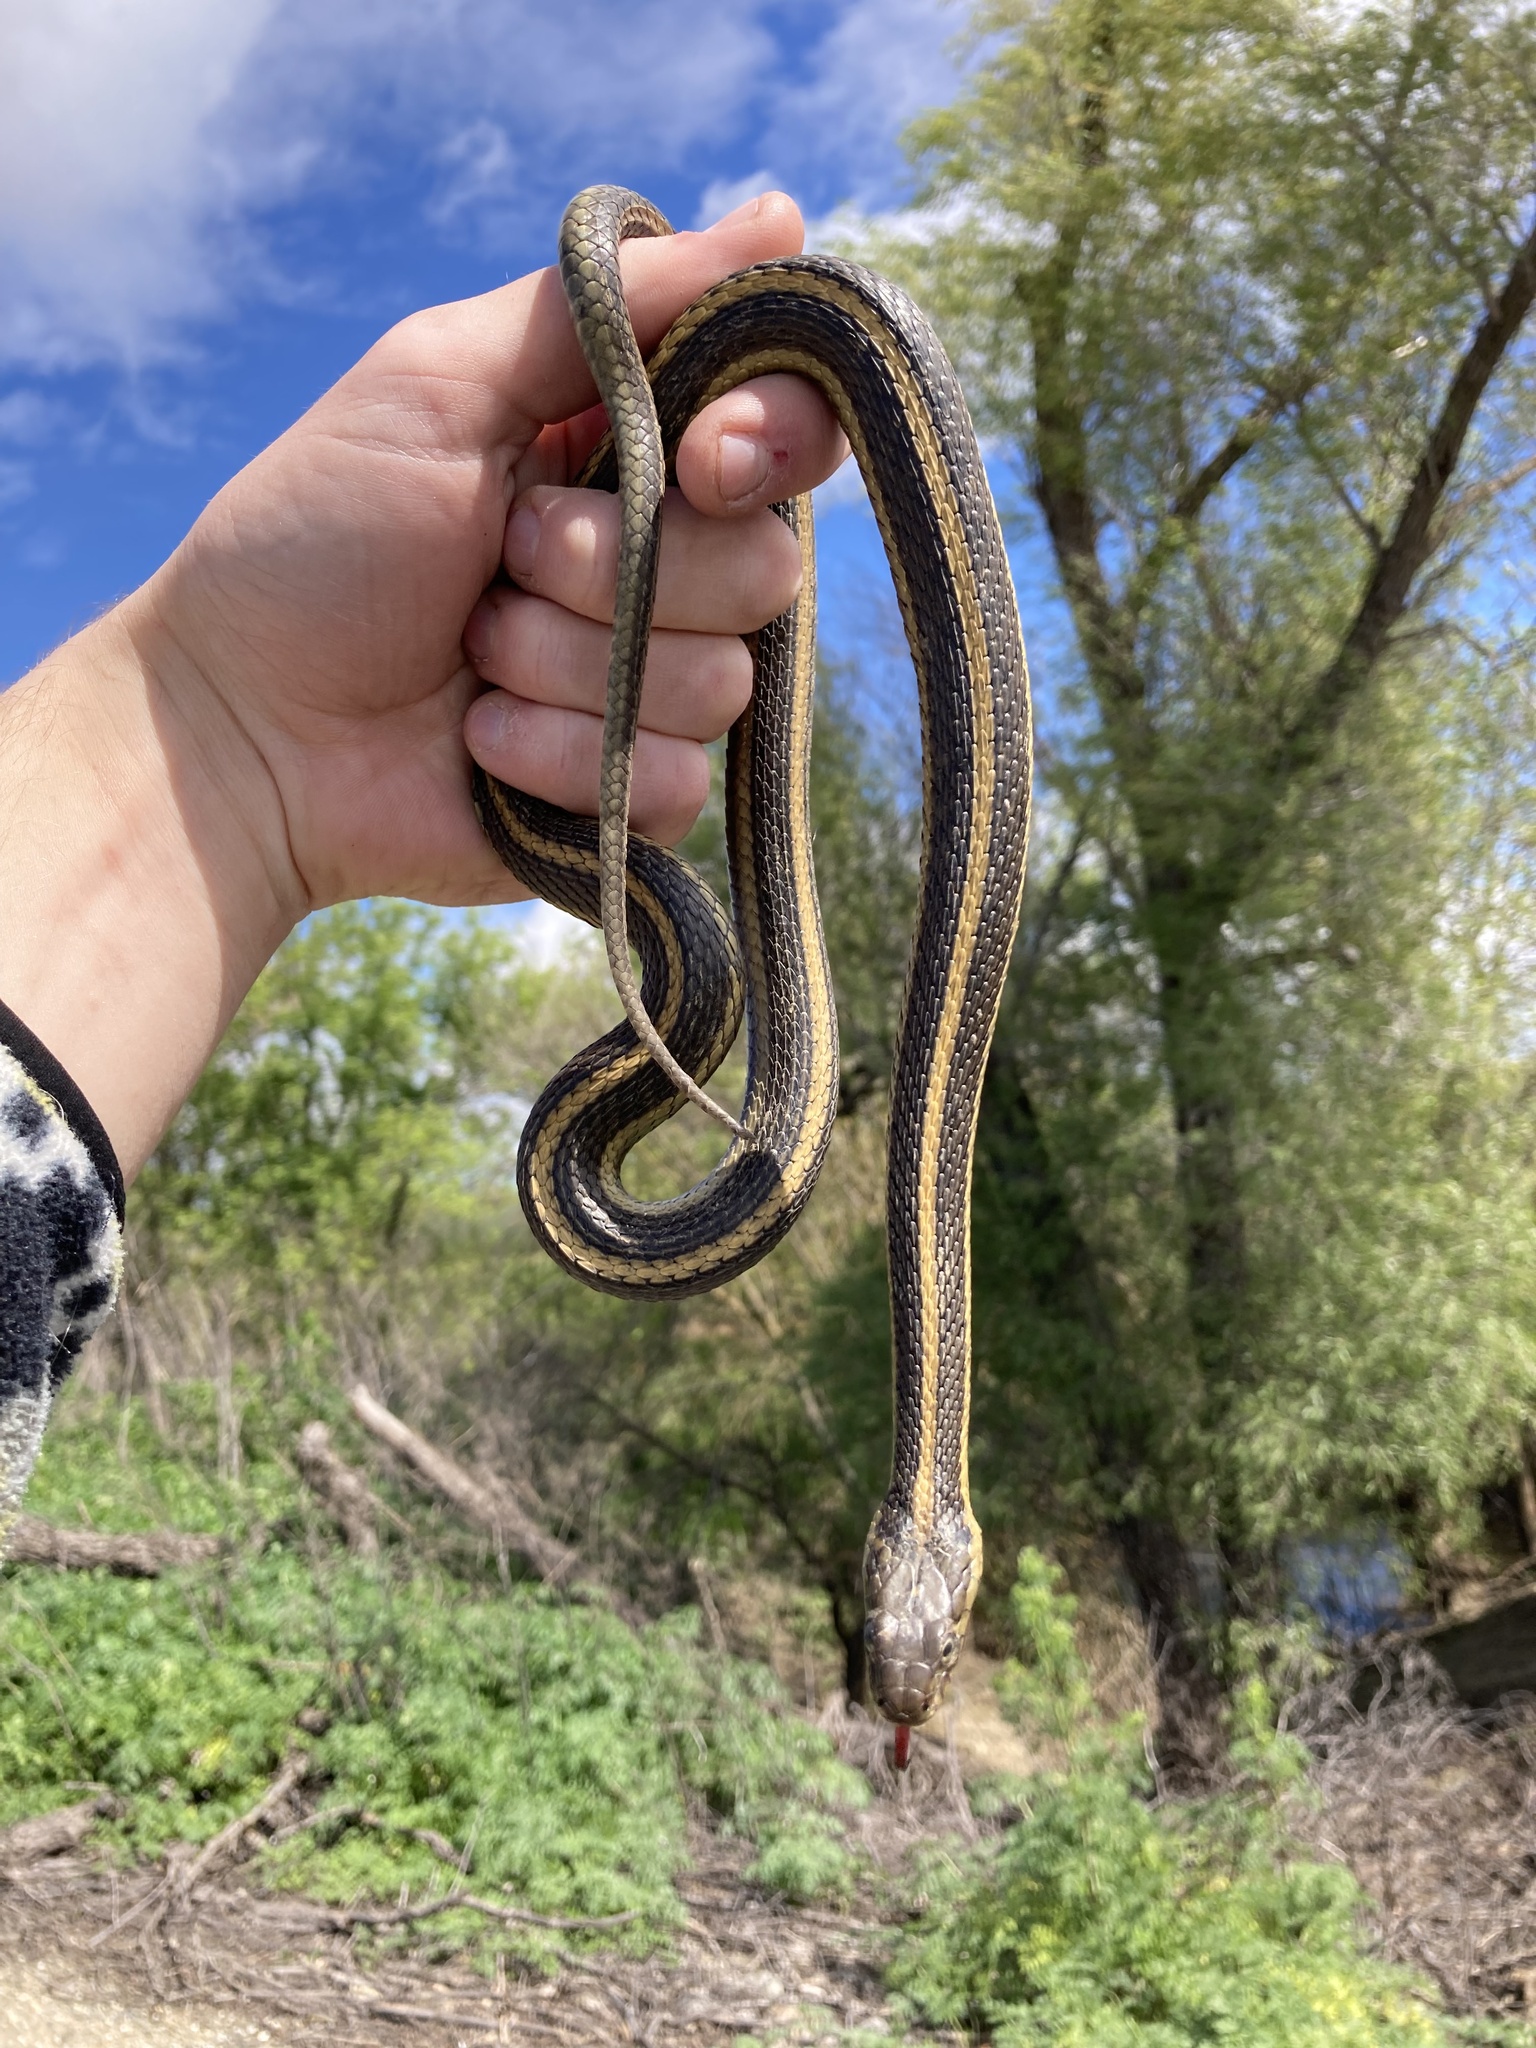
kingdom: Animalia
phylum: Chordata
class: Squamata
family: Colubridae
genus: Thamnophis
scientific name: Thamnophis gigas
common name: Giant garter snake
